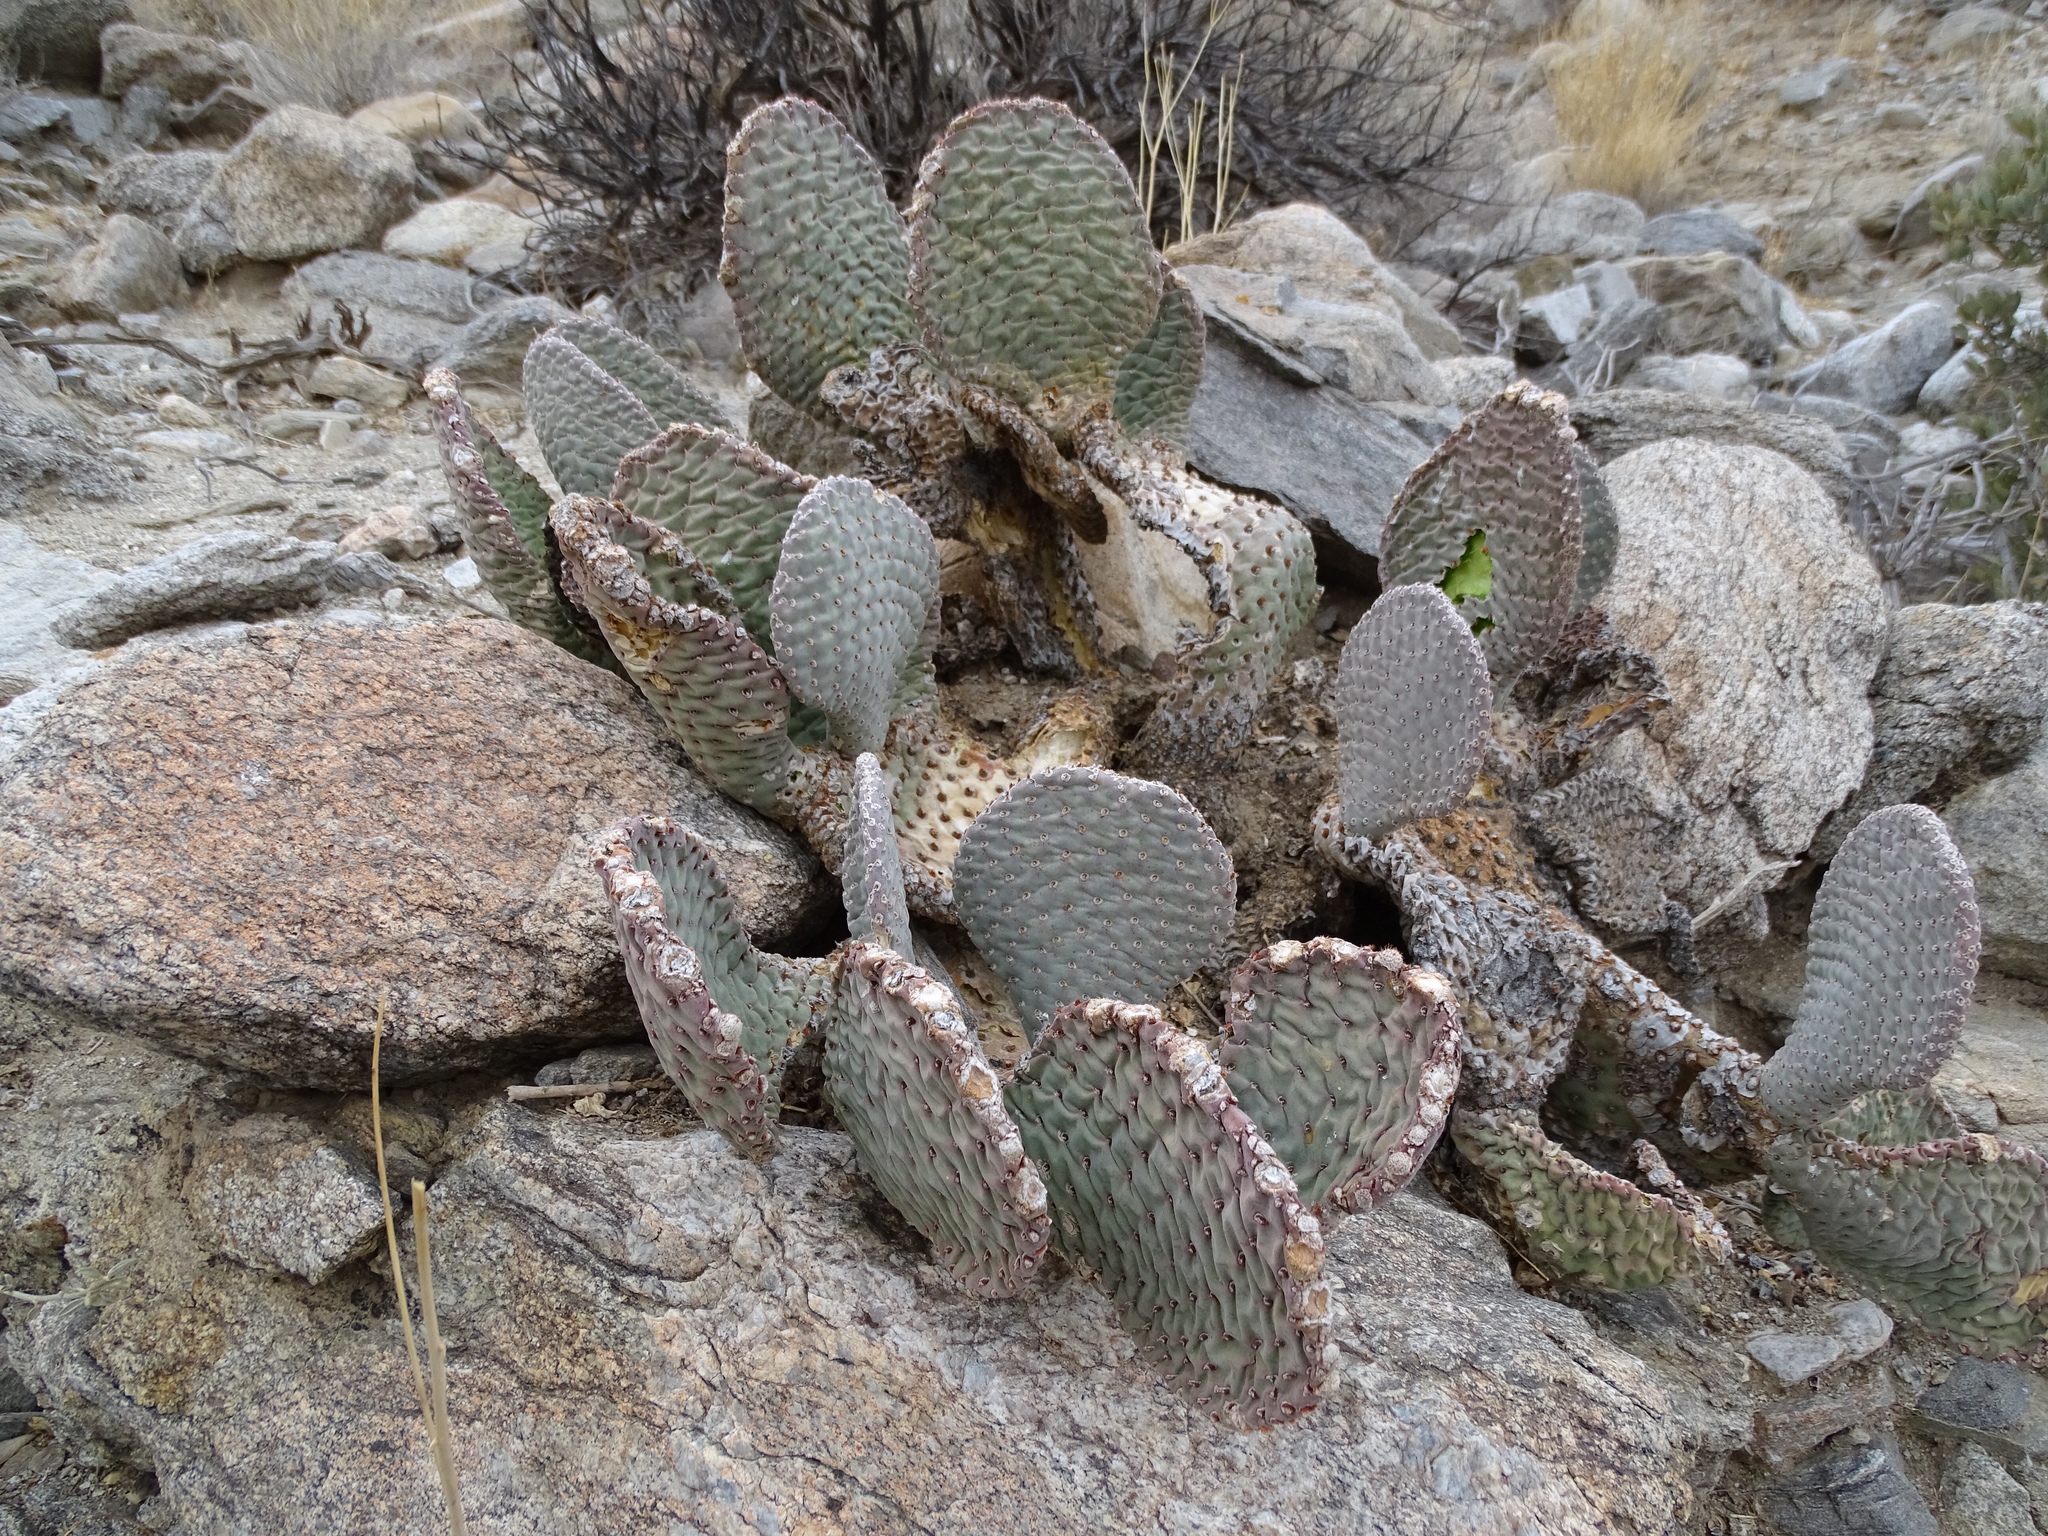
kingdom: Plantae
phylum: Tracheophyta
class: Magnoliopsida
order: Caryophyllales
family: Cactaceae
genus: Opuntia
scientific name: Opuntia basilaris
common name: Beavertail prickly-pear
